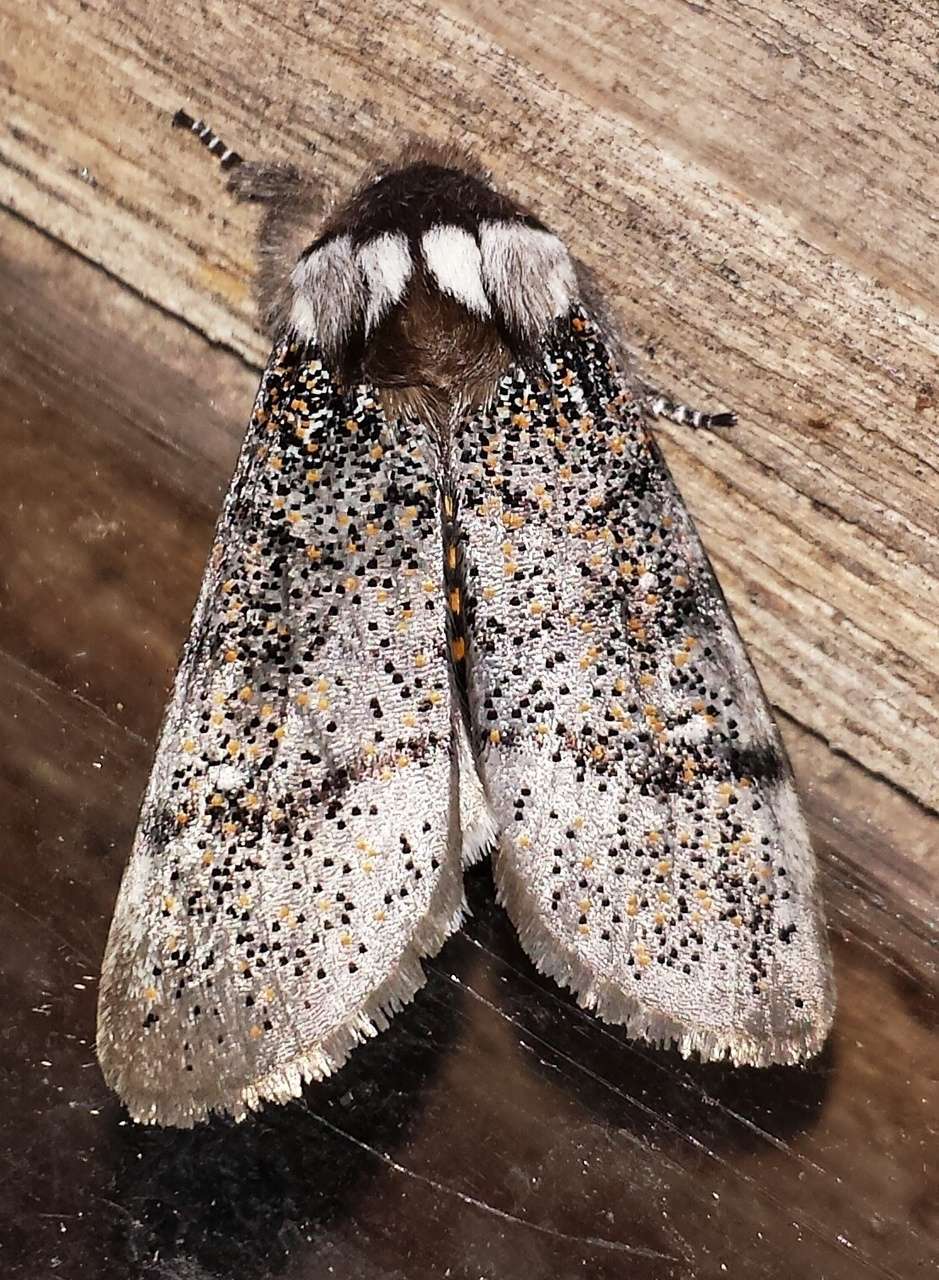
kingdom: Animalia
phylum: Arthropoda
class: Insecta
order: Lepidoptera
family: Oenosandridae
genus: Oenosandra
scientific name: Oenosandra boisduvalii
